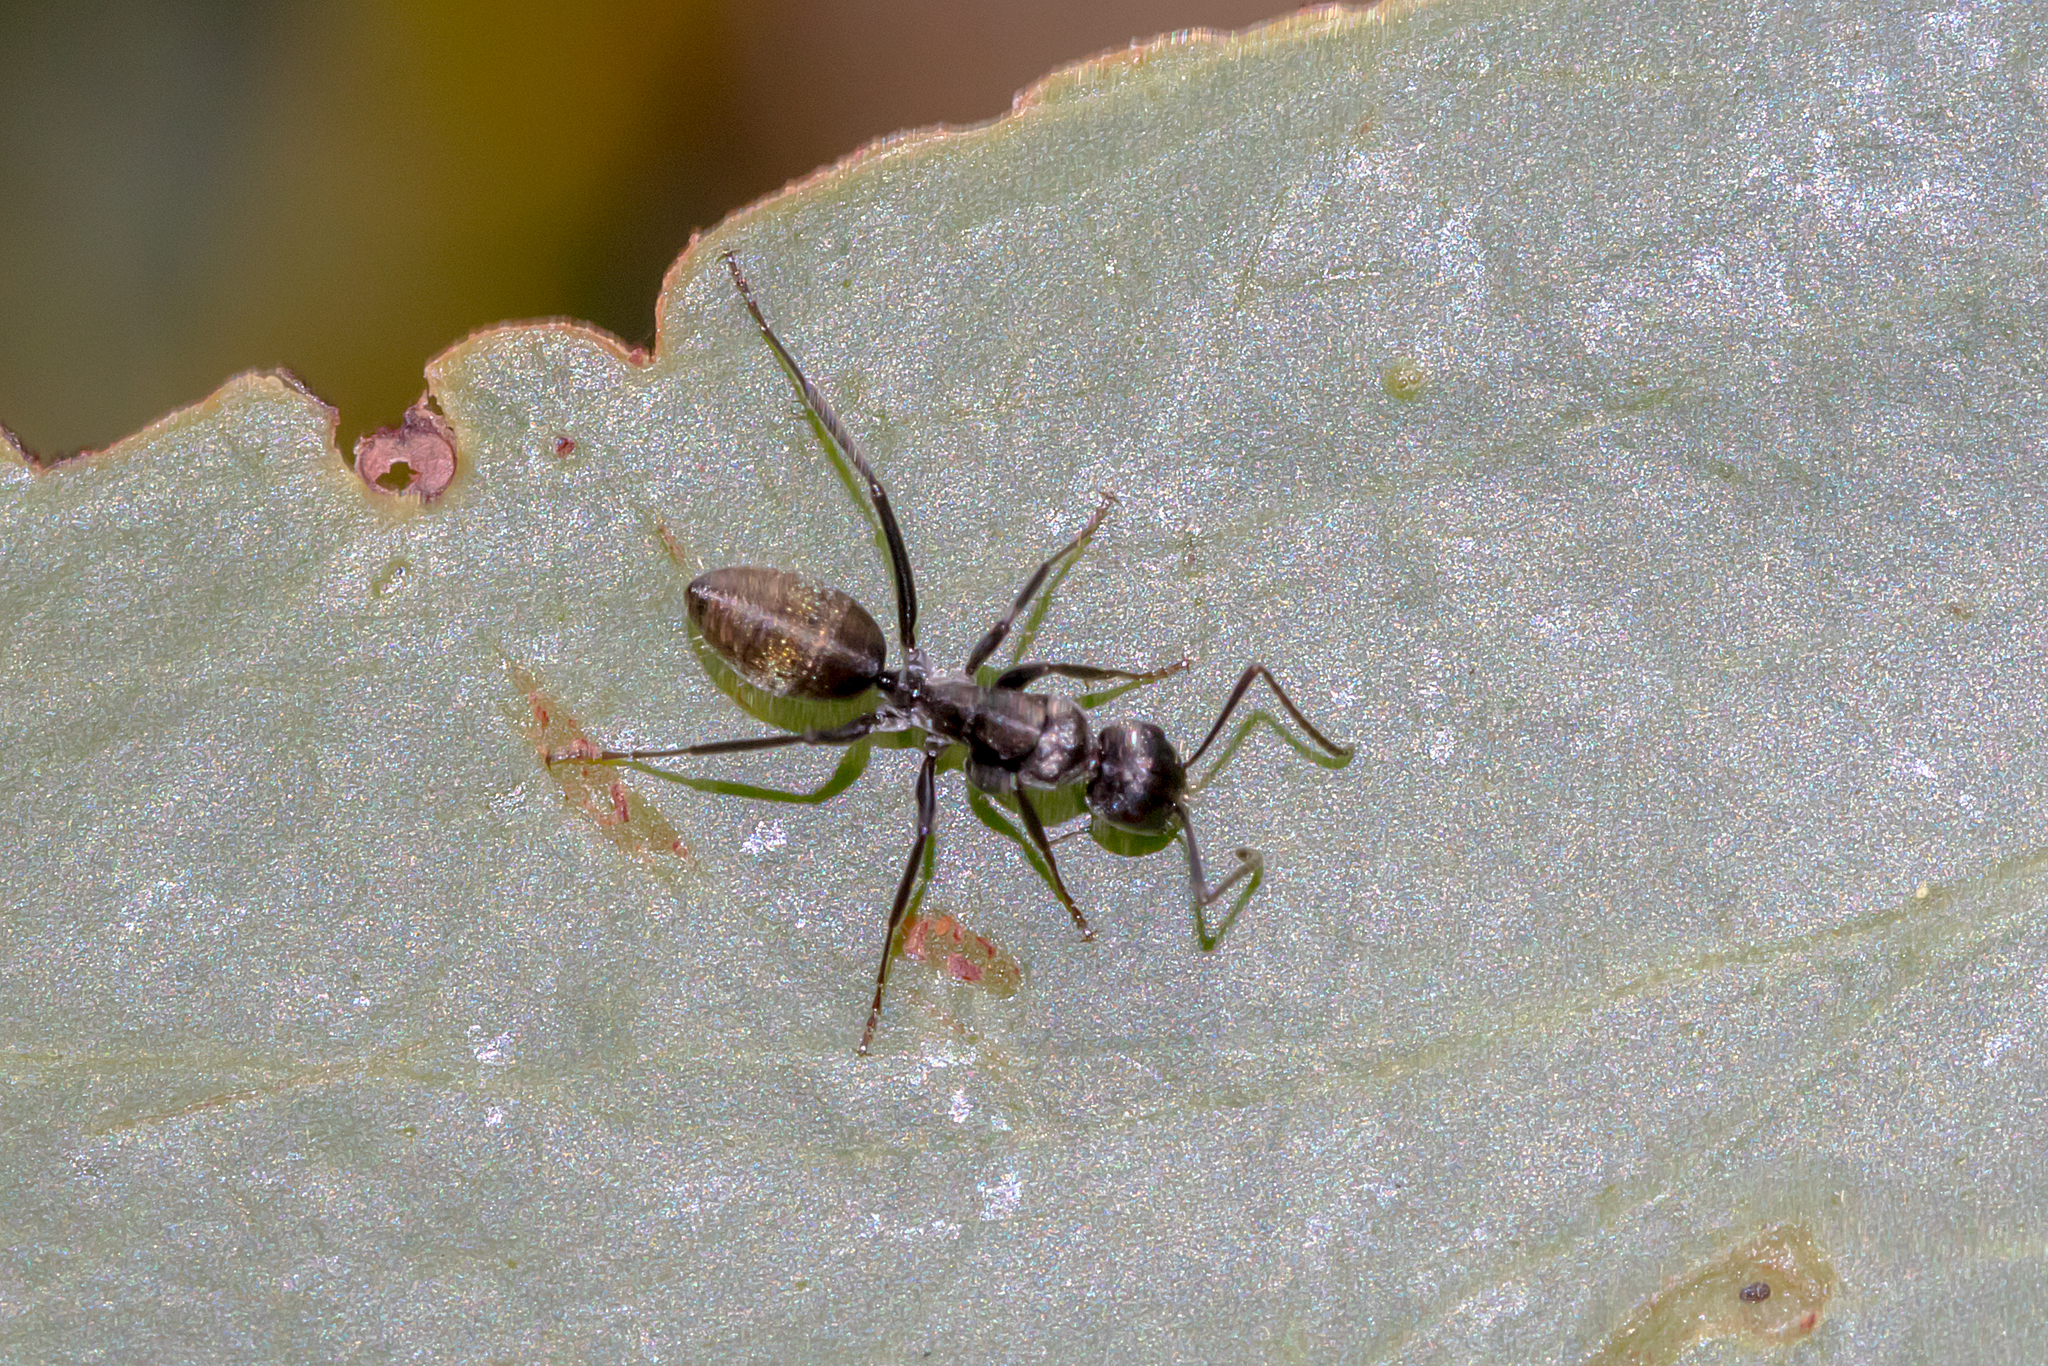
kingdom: Animalia
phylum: Arthropoda
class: Insecta
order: Hymenoptera
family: Formicidae
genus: Camponotus
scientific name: Camponotus aeneopilosus
